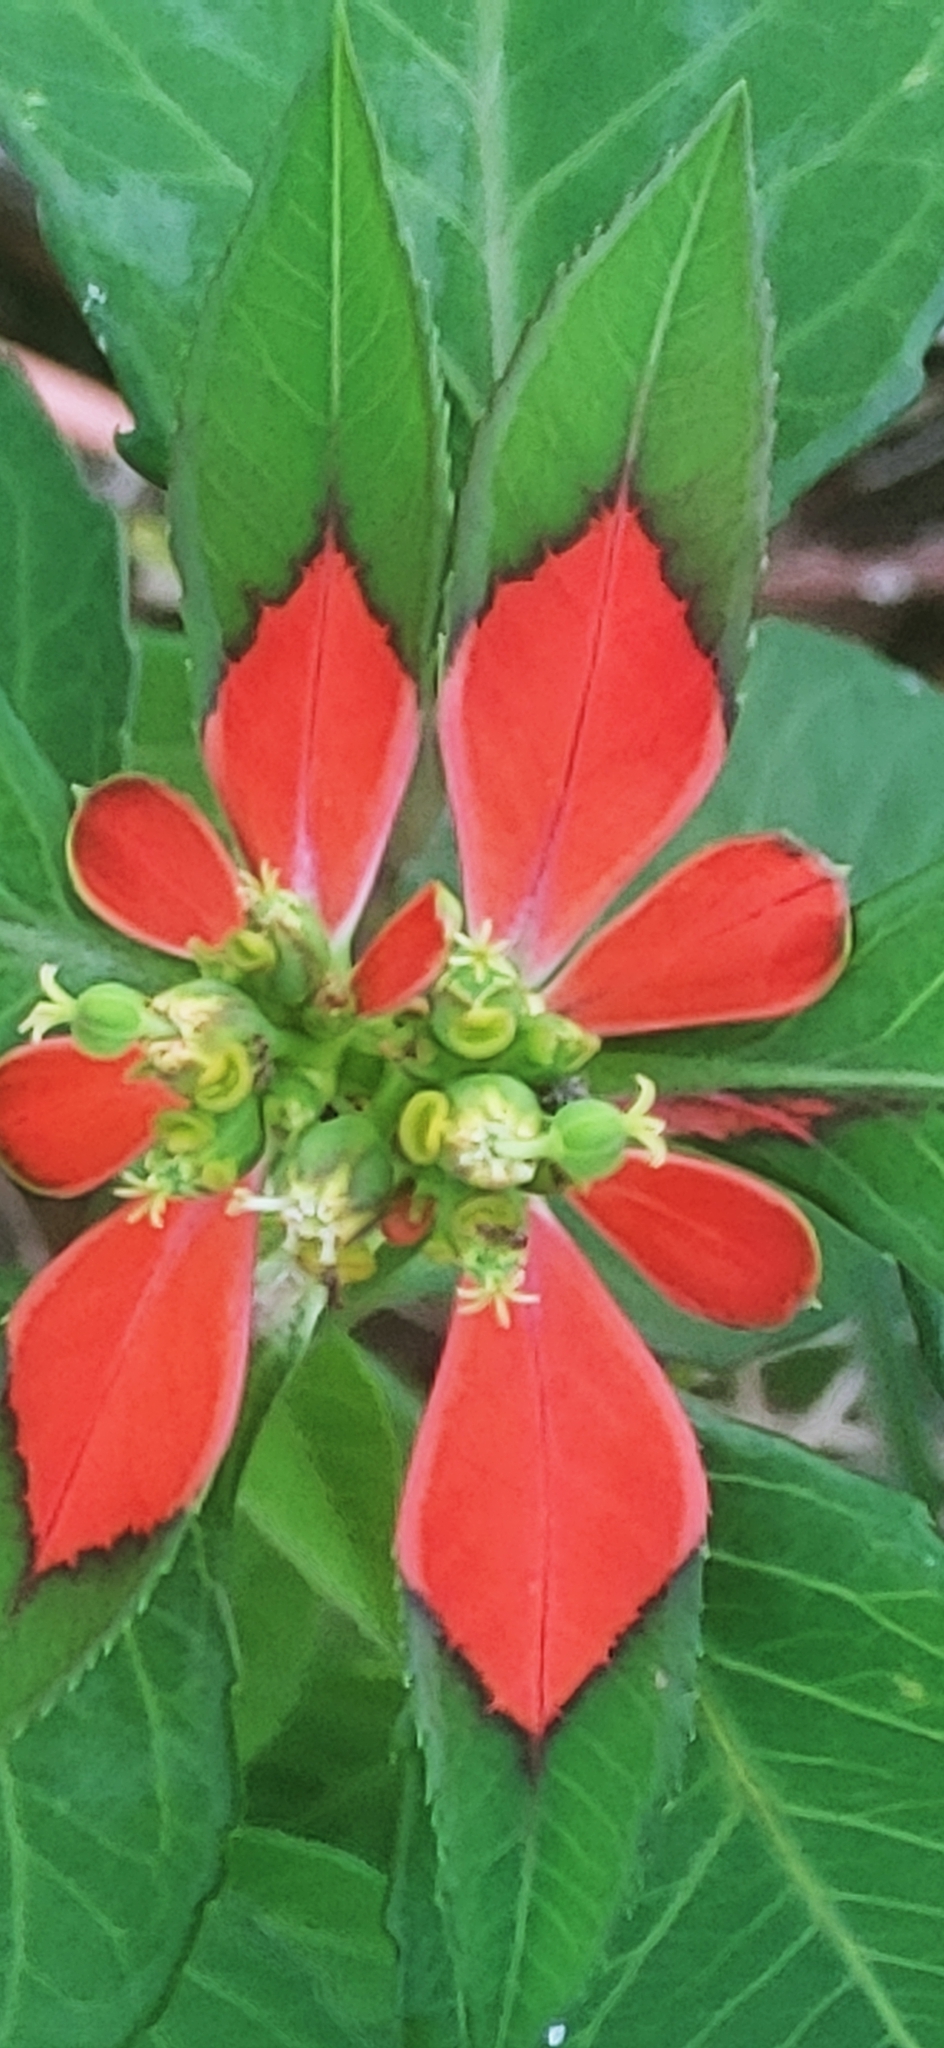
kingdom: Plantae
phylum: Tracheophyta
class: Magnoliopsida
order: Malpighiales
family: Euphorbiaceae
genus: Euphorbia
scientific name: Euphorbia heterophylla
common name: Mexican fireplant
